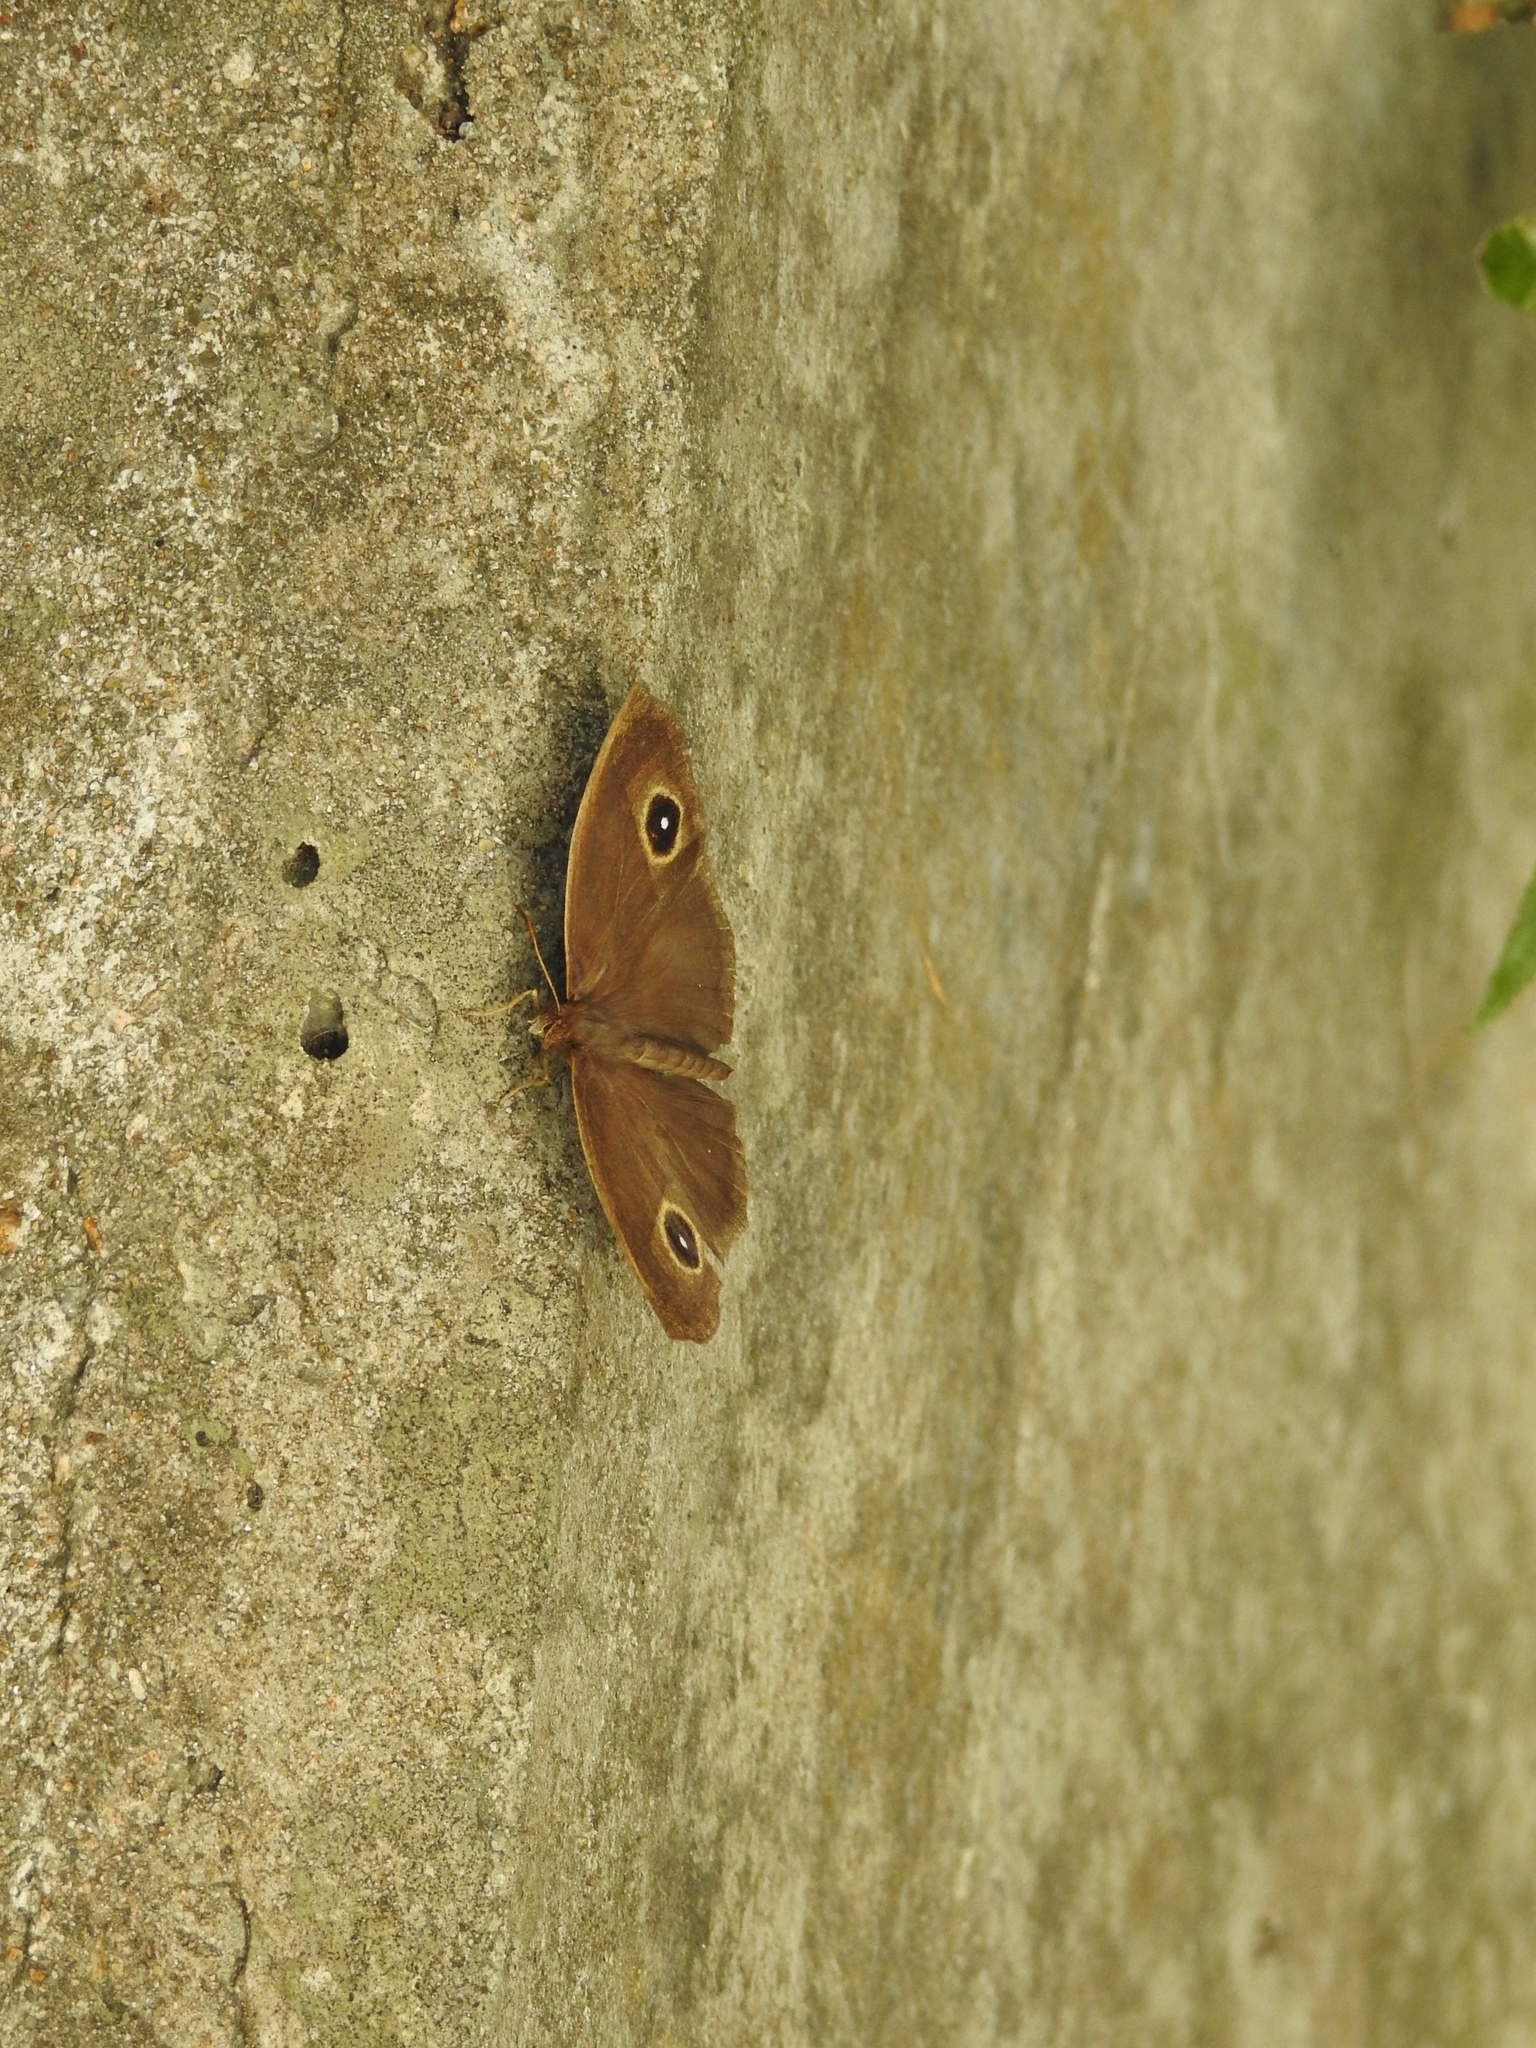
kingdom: Animalia
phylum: Arthropoda
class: Insecta
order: Lepidoptera
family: Nymphalidae
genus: Mycalesis
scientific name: Mycalesis horsfieldii
